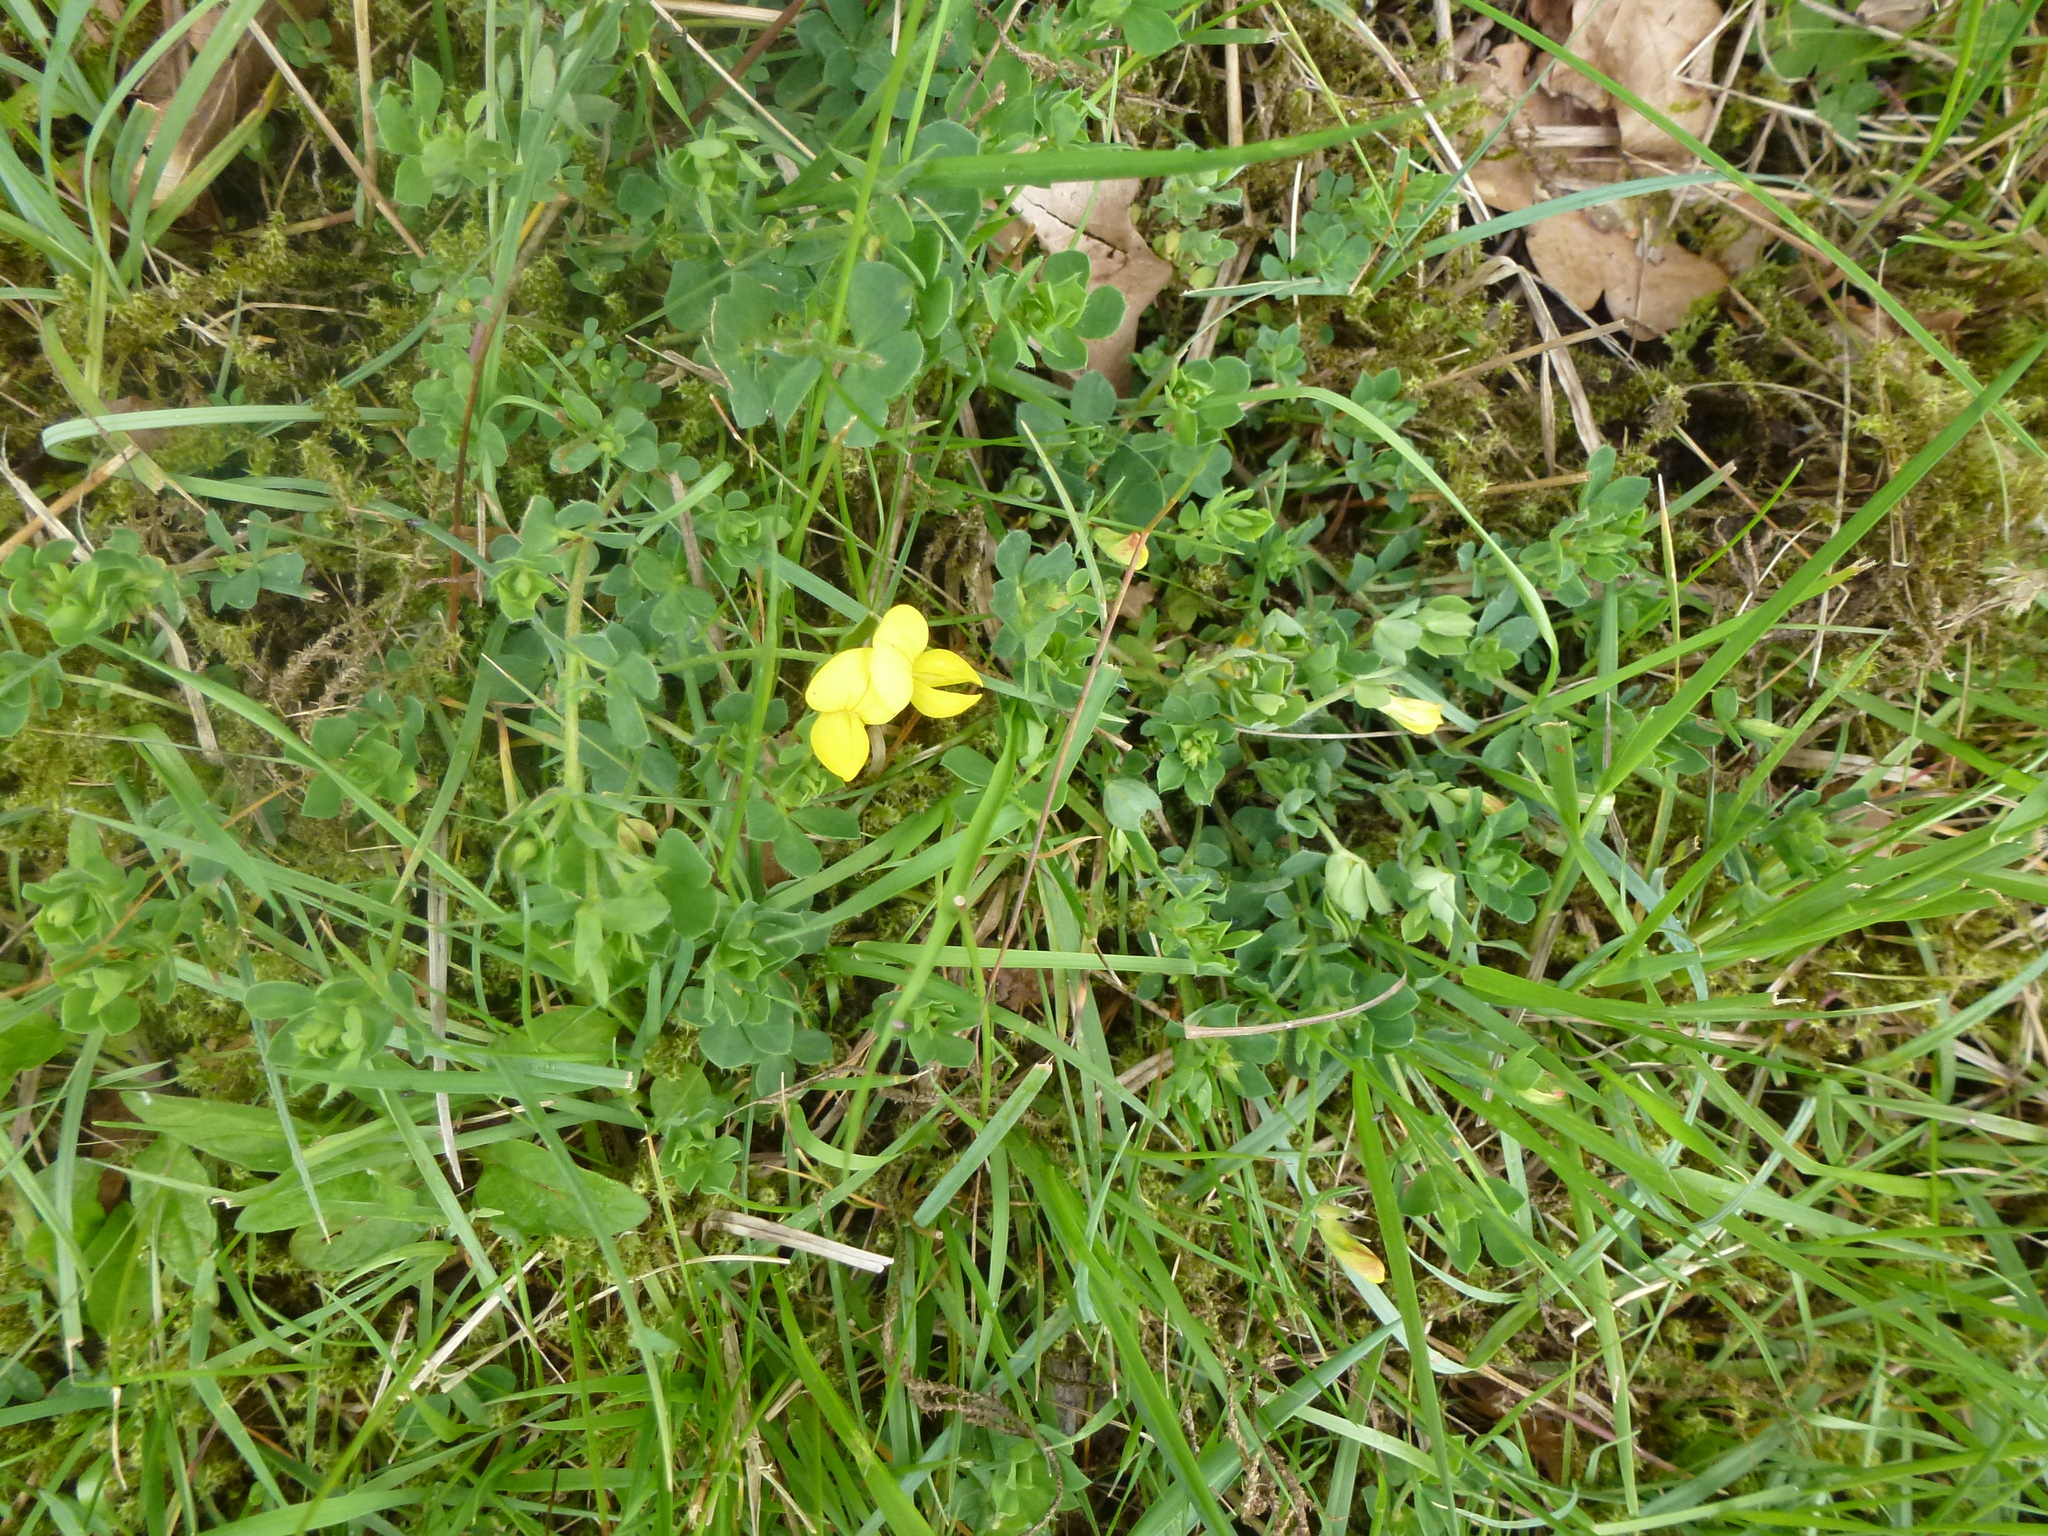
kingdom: Plantae
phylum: Tracheophyta
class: Magnoliopsida
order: Fabales
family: Fabaceae
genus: Lotus
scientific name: Lotus corniculatus
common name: Common bird's-foot-trefoil
